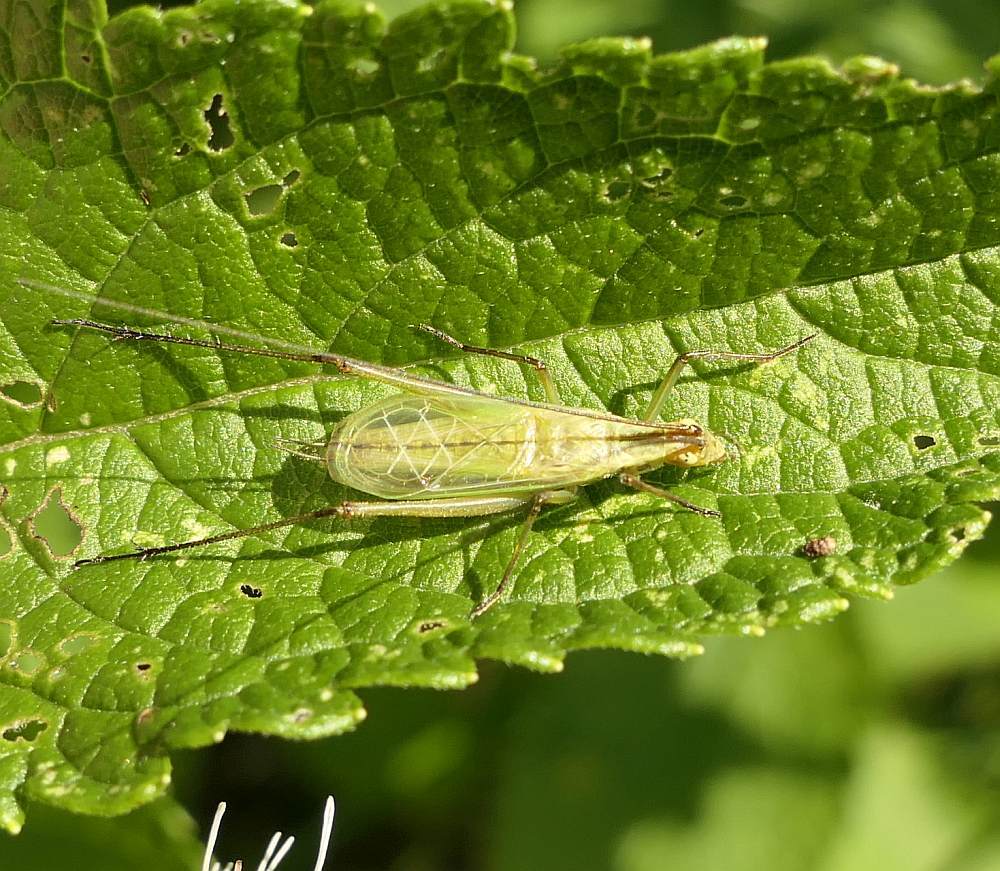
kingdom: Animalia
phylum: Arthropoda
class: Insecta
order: Orthoptera
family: Gryllidae
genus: Oecanthus
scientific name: Oecanthus nigricornis
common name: Black-horned tree cricket
